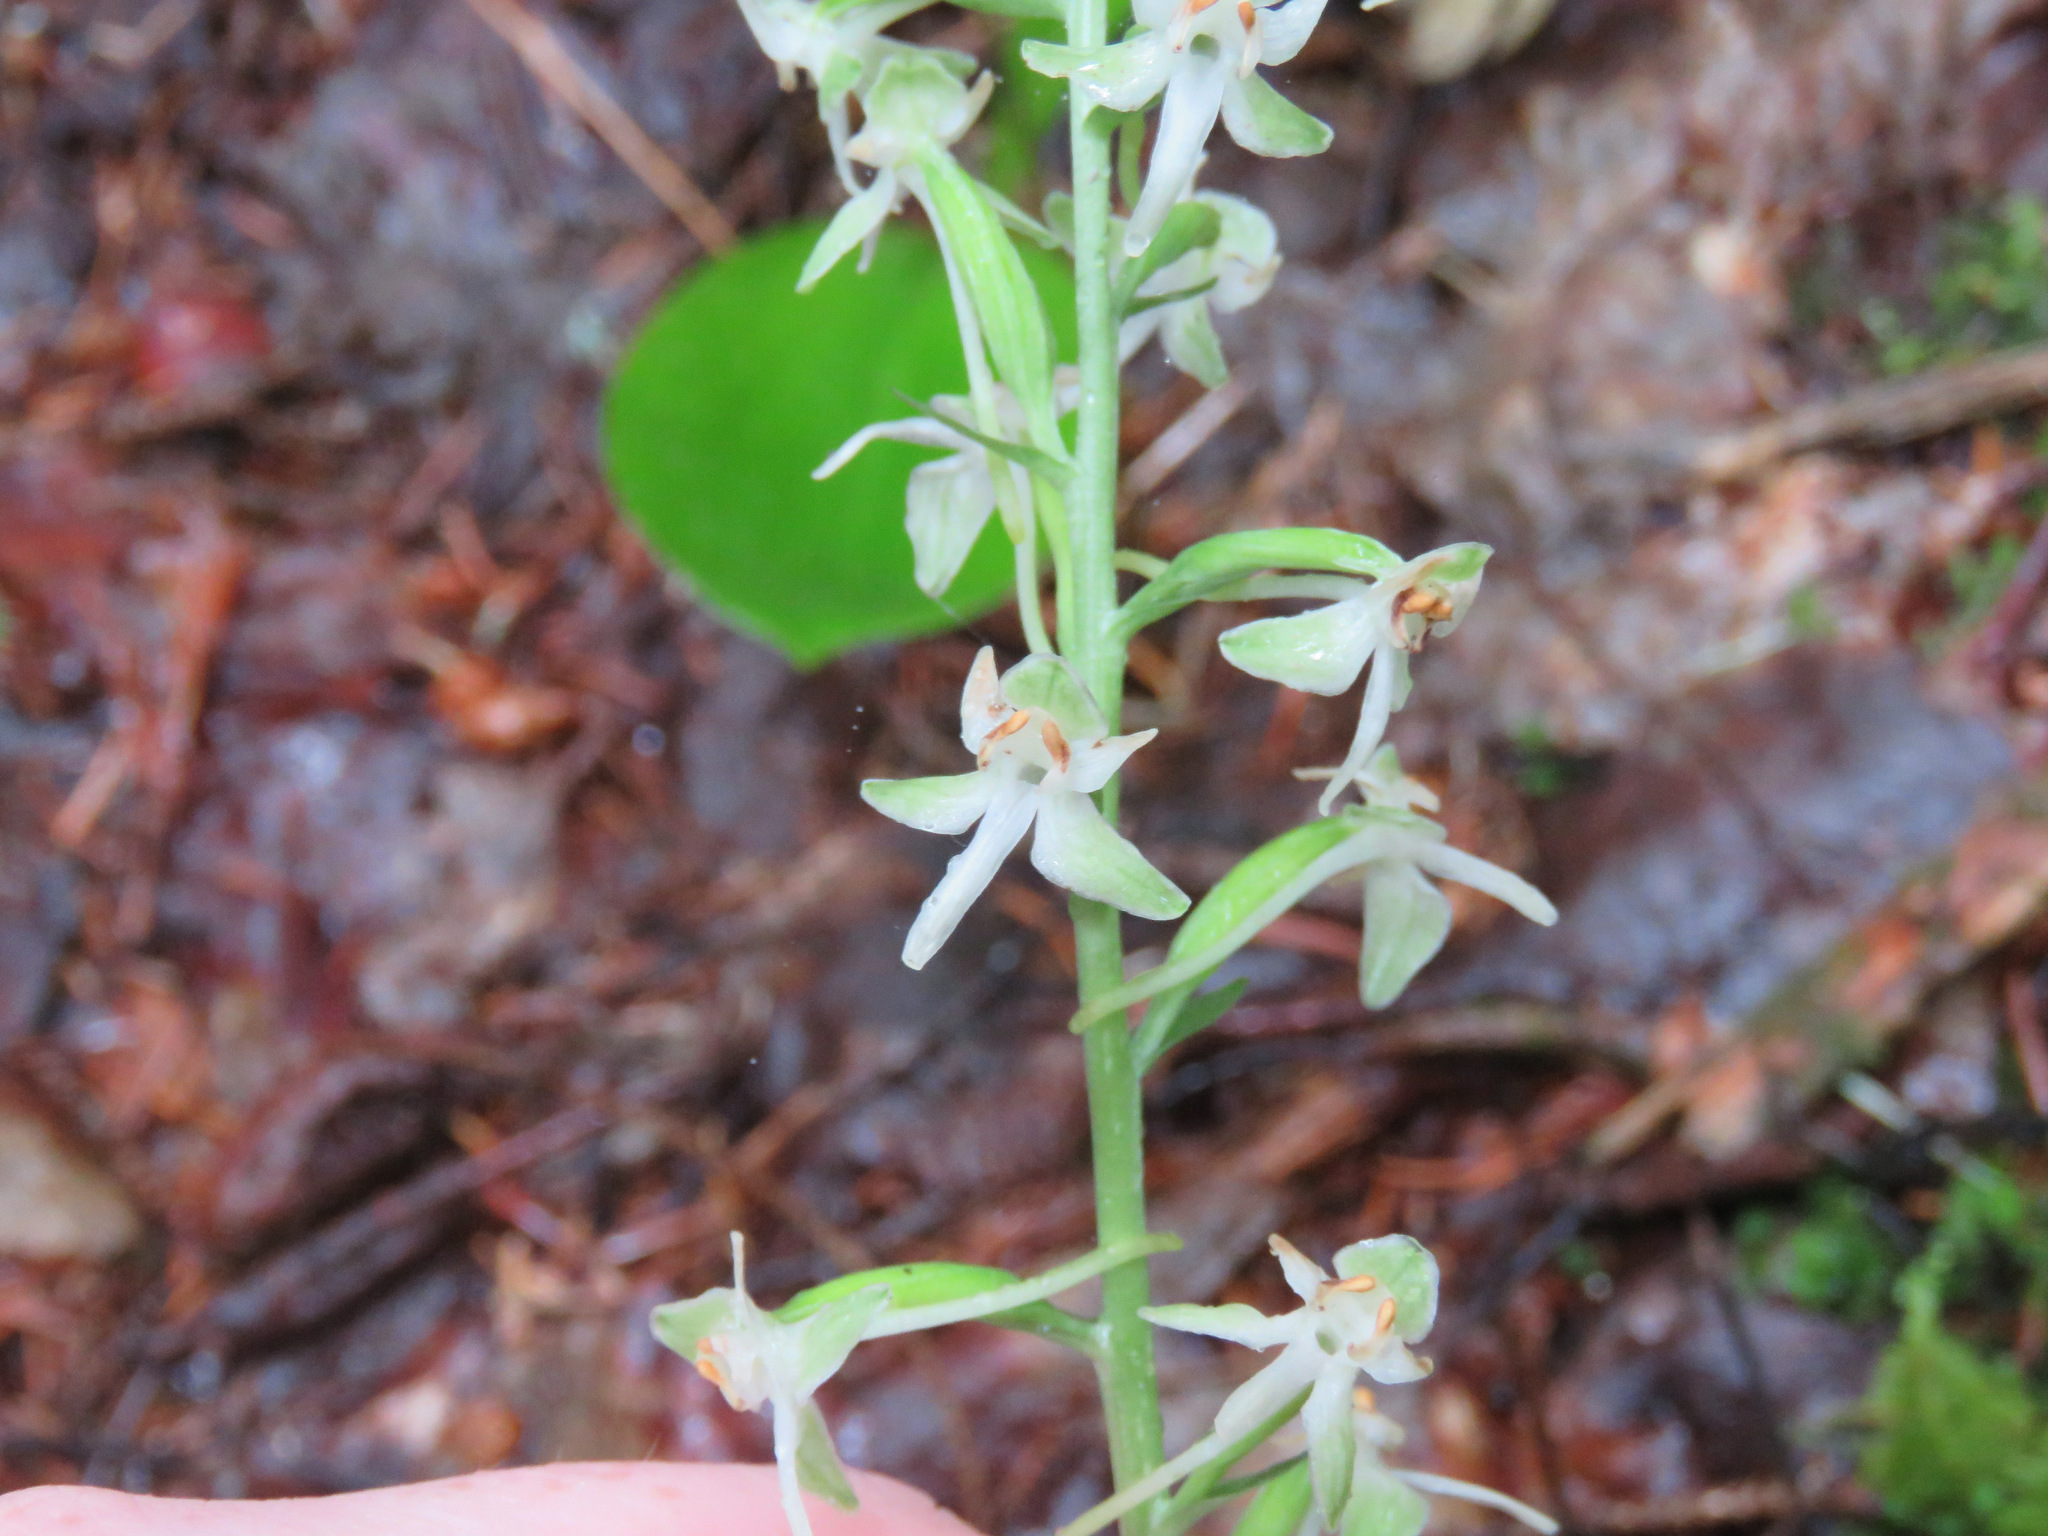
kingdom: Plantae
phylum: Tracheophyta
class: Liliopsida
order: Asparagales
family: Orchidaceae
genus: Platanthera
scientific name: Platanthera orbiculata
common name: Large round-leaved orchid
